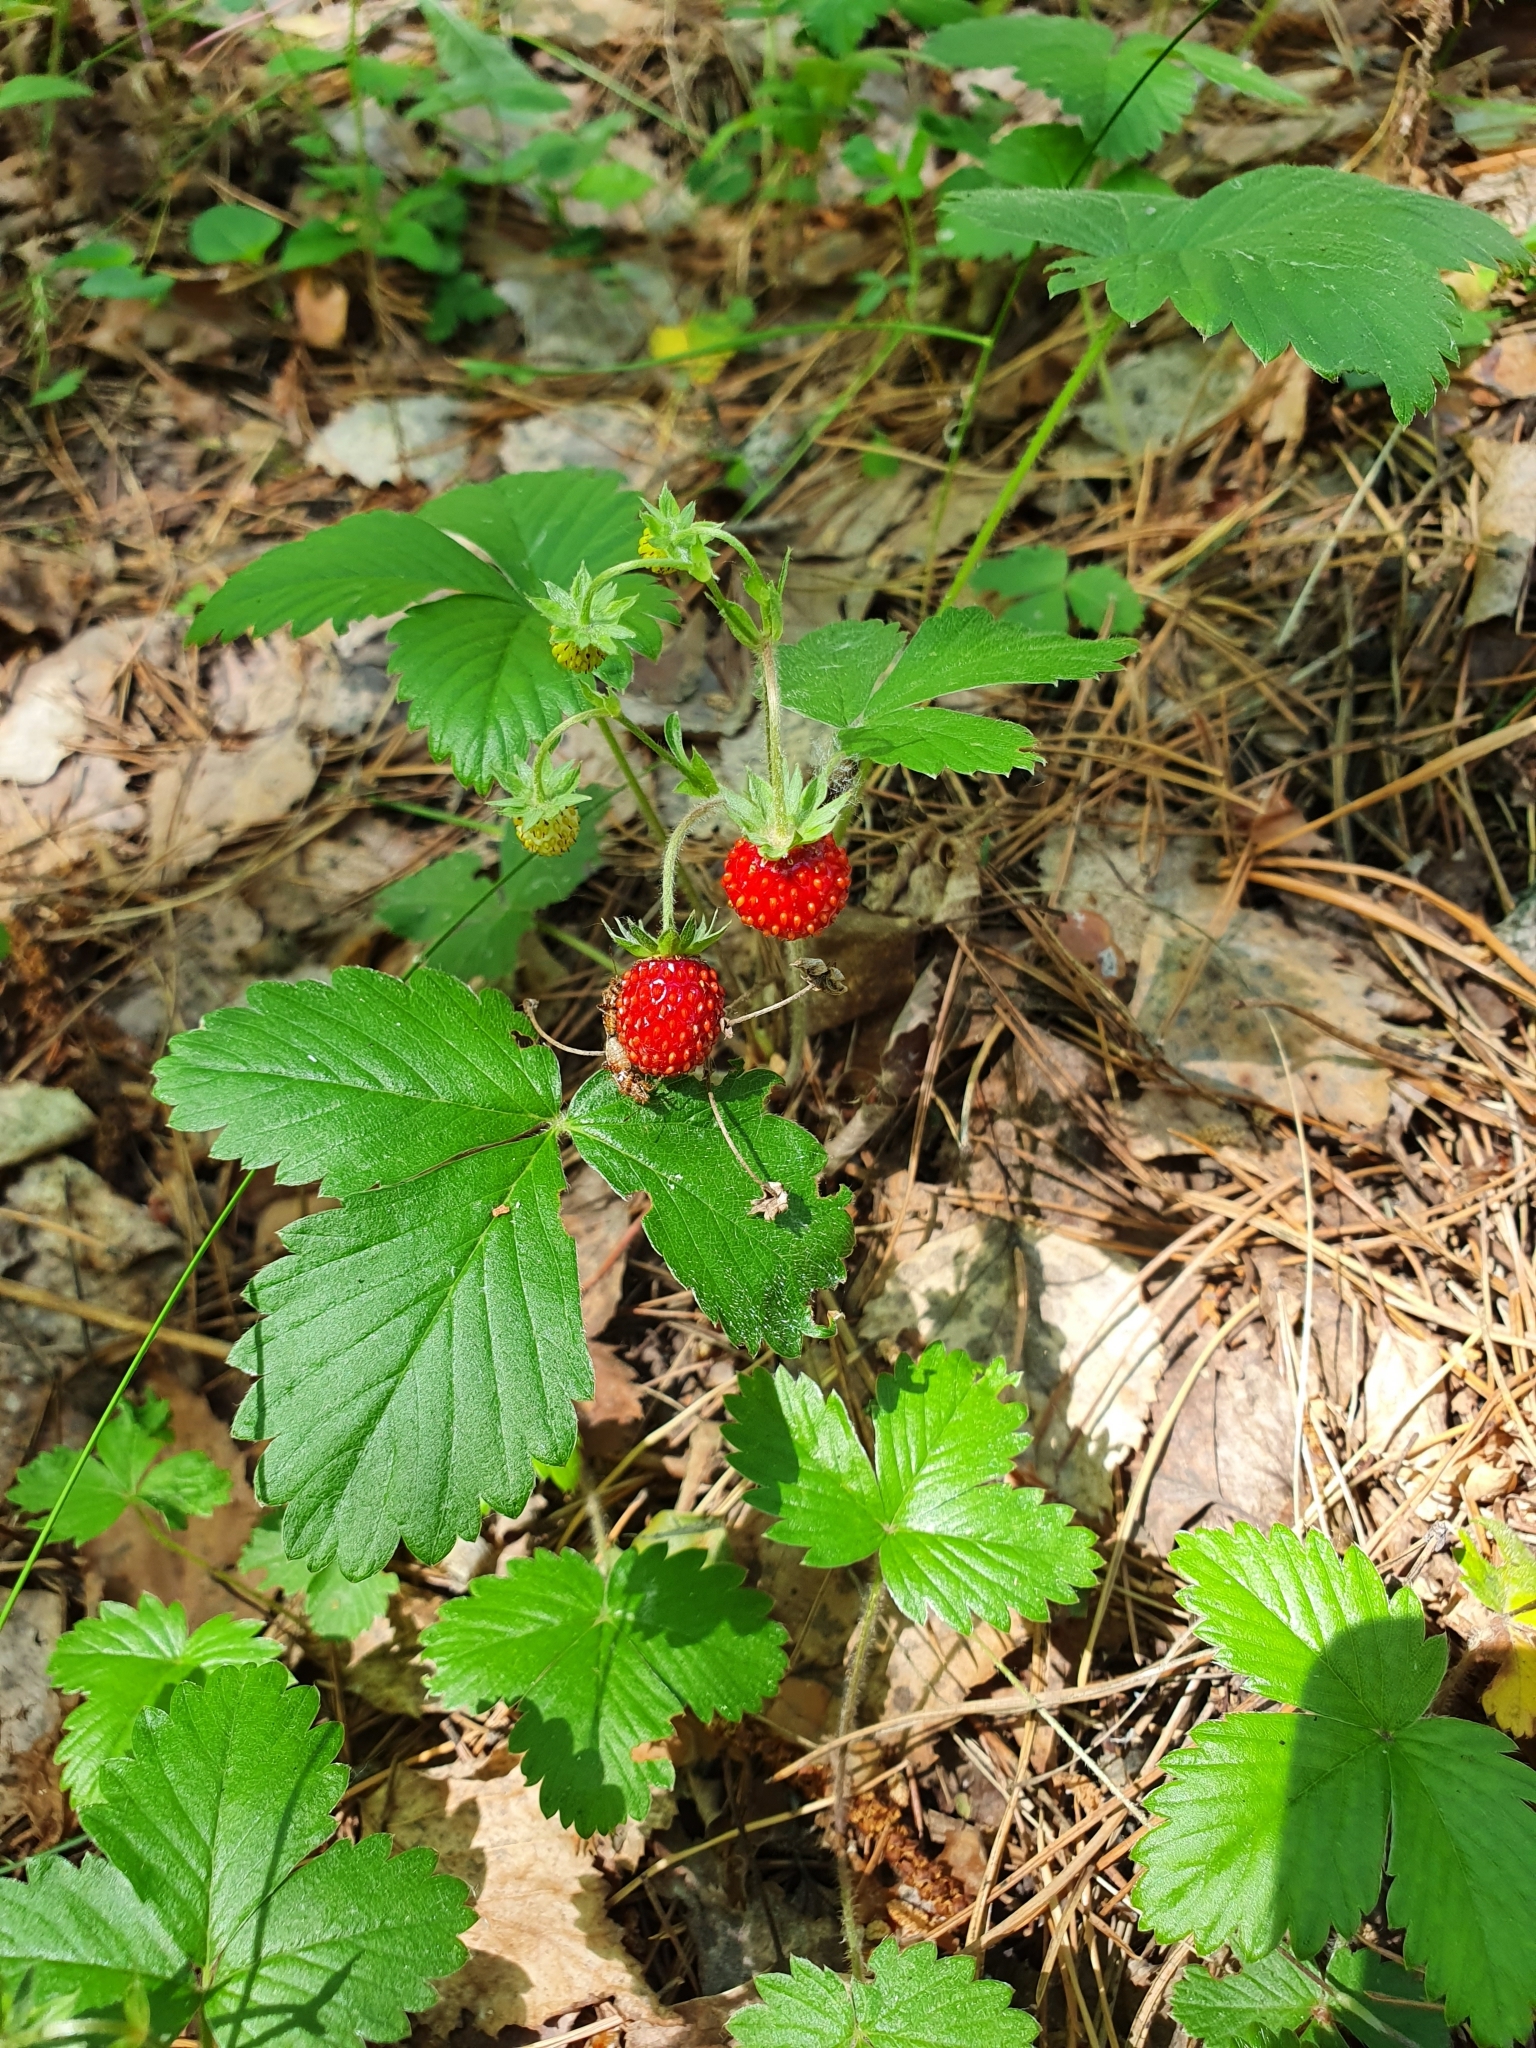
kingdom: Plantae
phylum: Tracheophyta
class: Magnoliopsida
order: Rosales
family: Rosaceae
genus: Fragaria
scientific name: Fragaria vesca
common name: Wild strawberry
